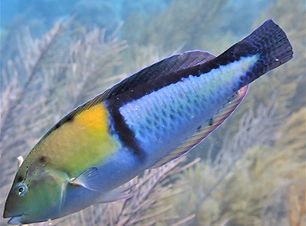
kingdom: Animalia
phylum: Chordata
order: Perciformes
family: Labridae
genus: Halichoeres
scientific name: Halichoeres garnoti
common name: Yellowhead wrasse
